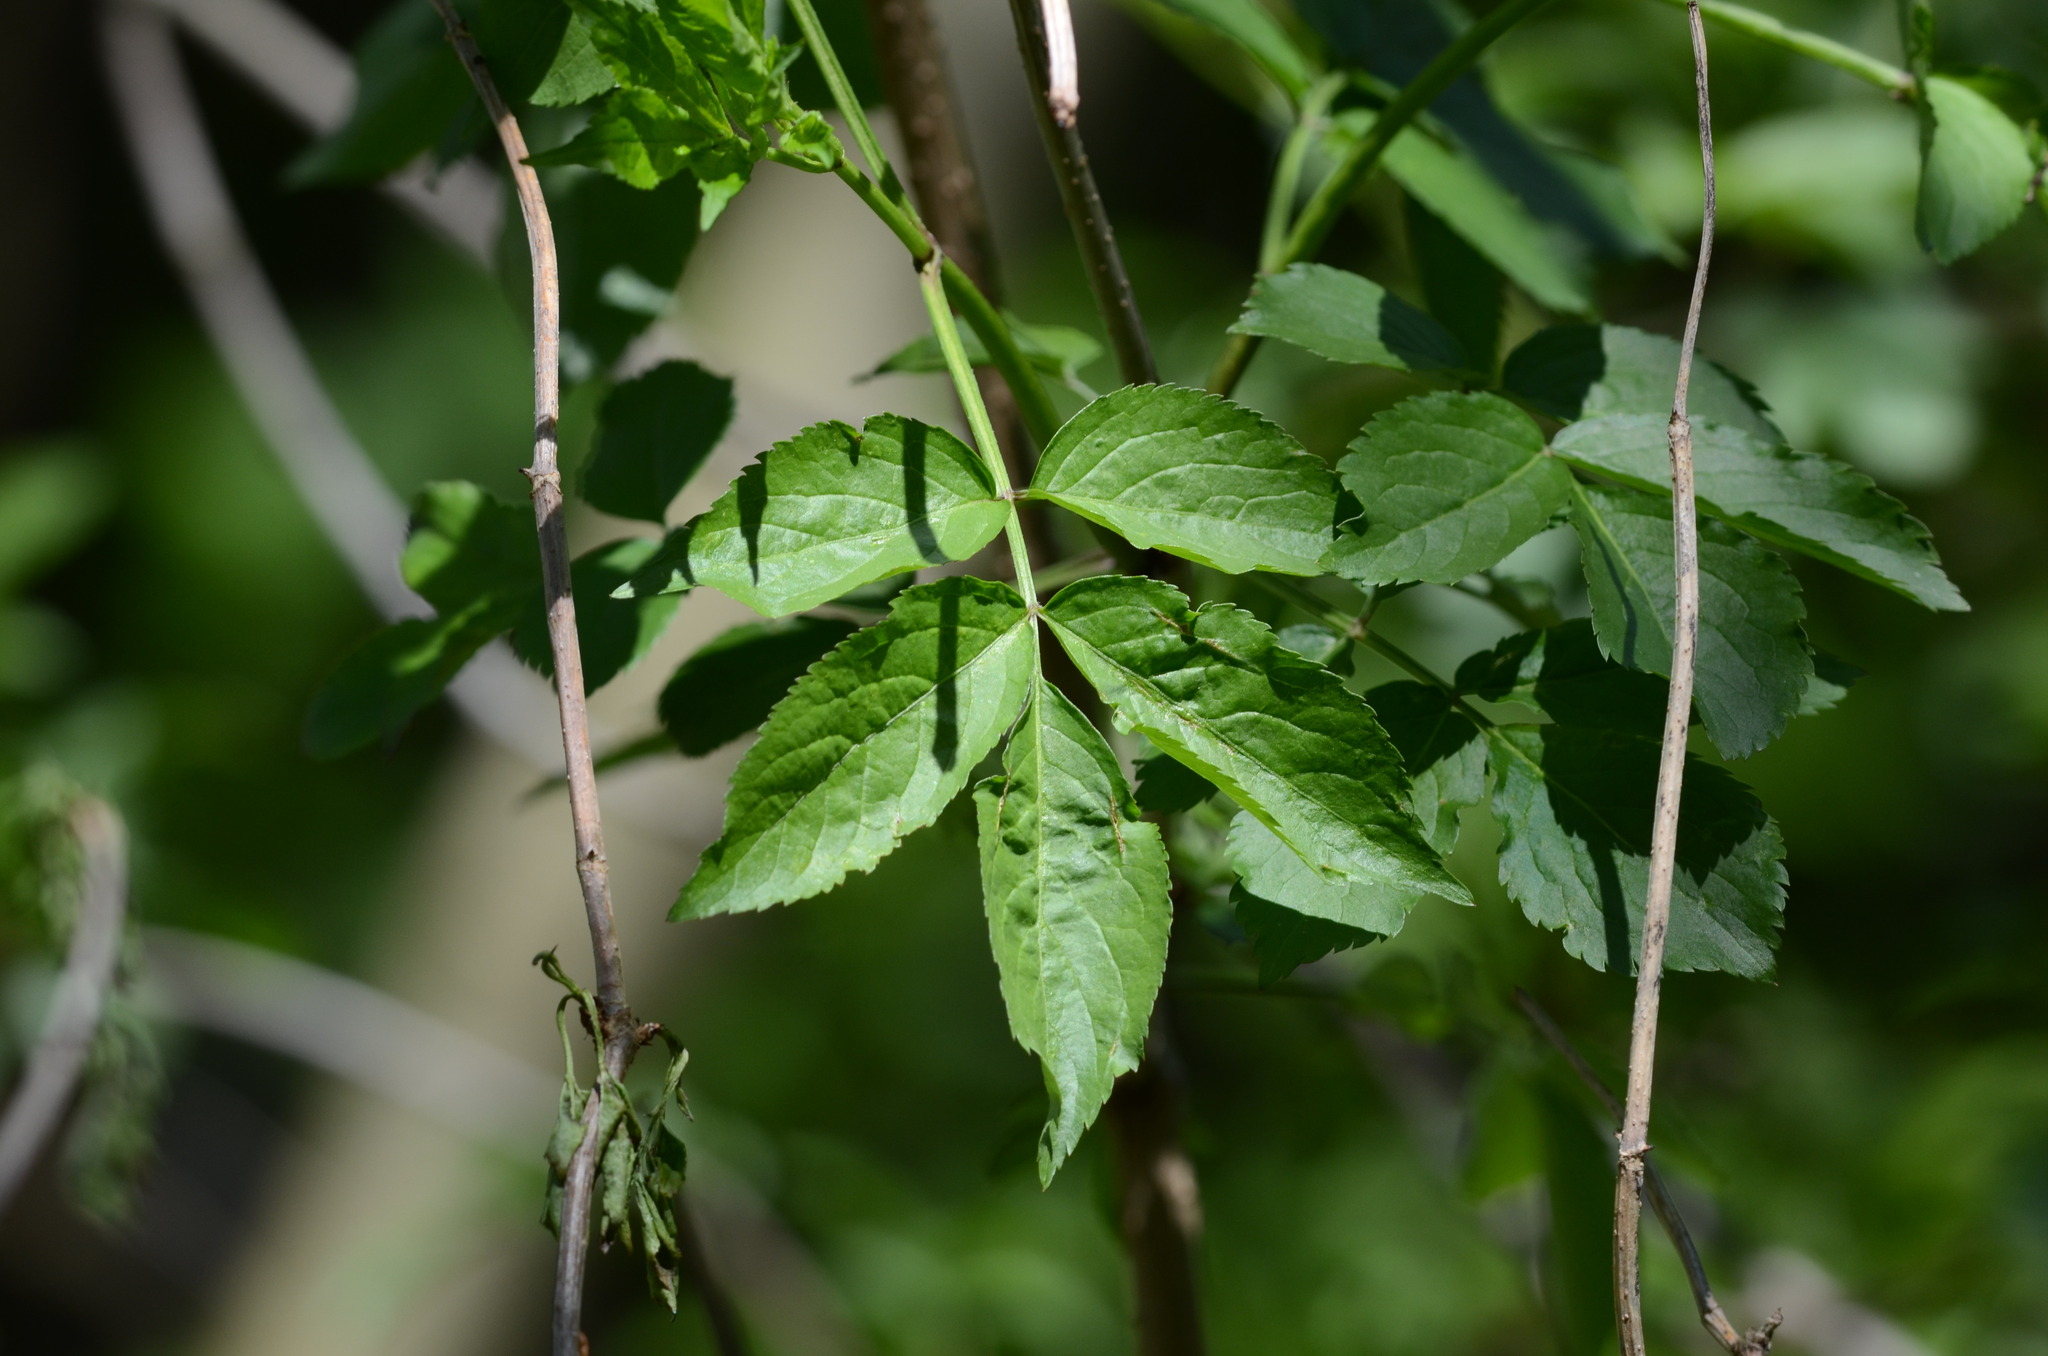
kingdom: Plantae
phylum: Tracheophyta
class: Magnoliopsida
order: Dipsacales
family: Viburnaceae
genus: Sambucus
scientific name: Sambucus nigra
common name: Elder
